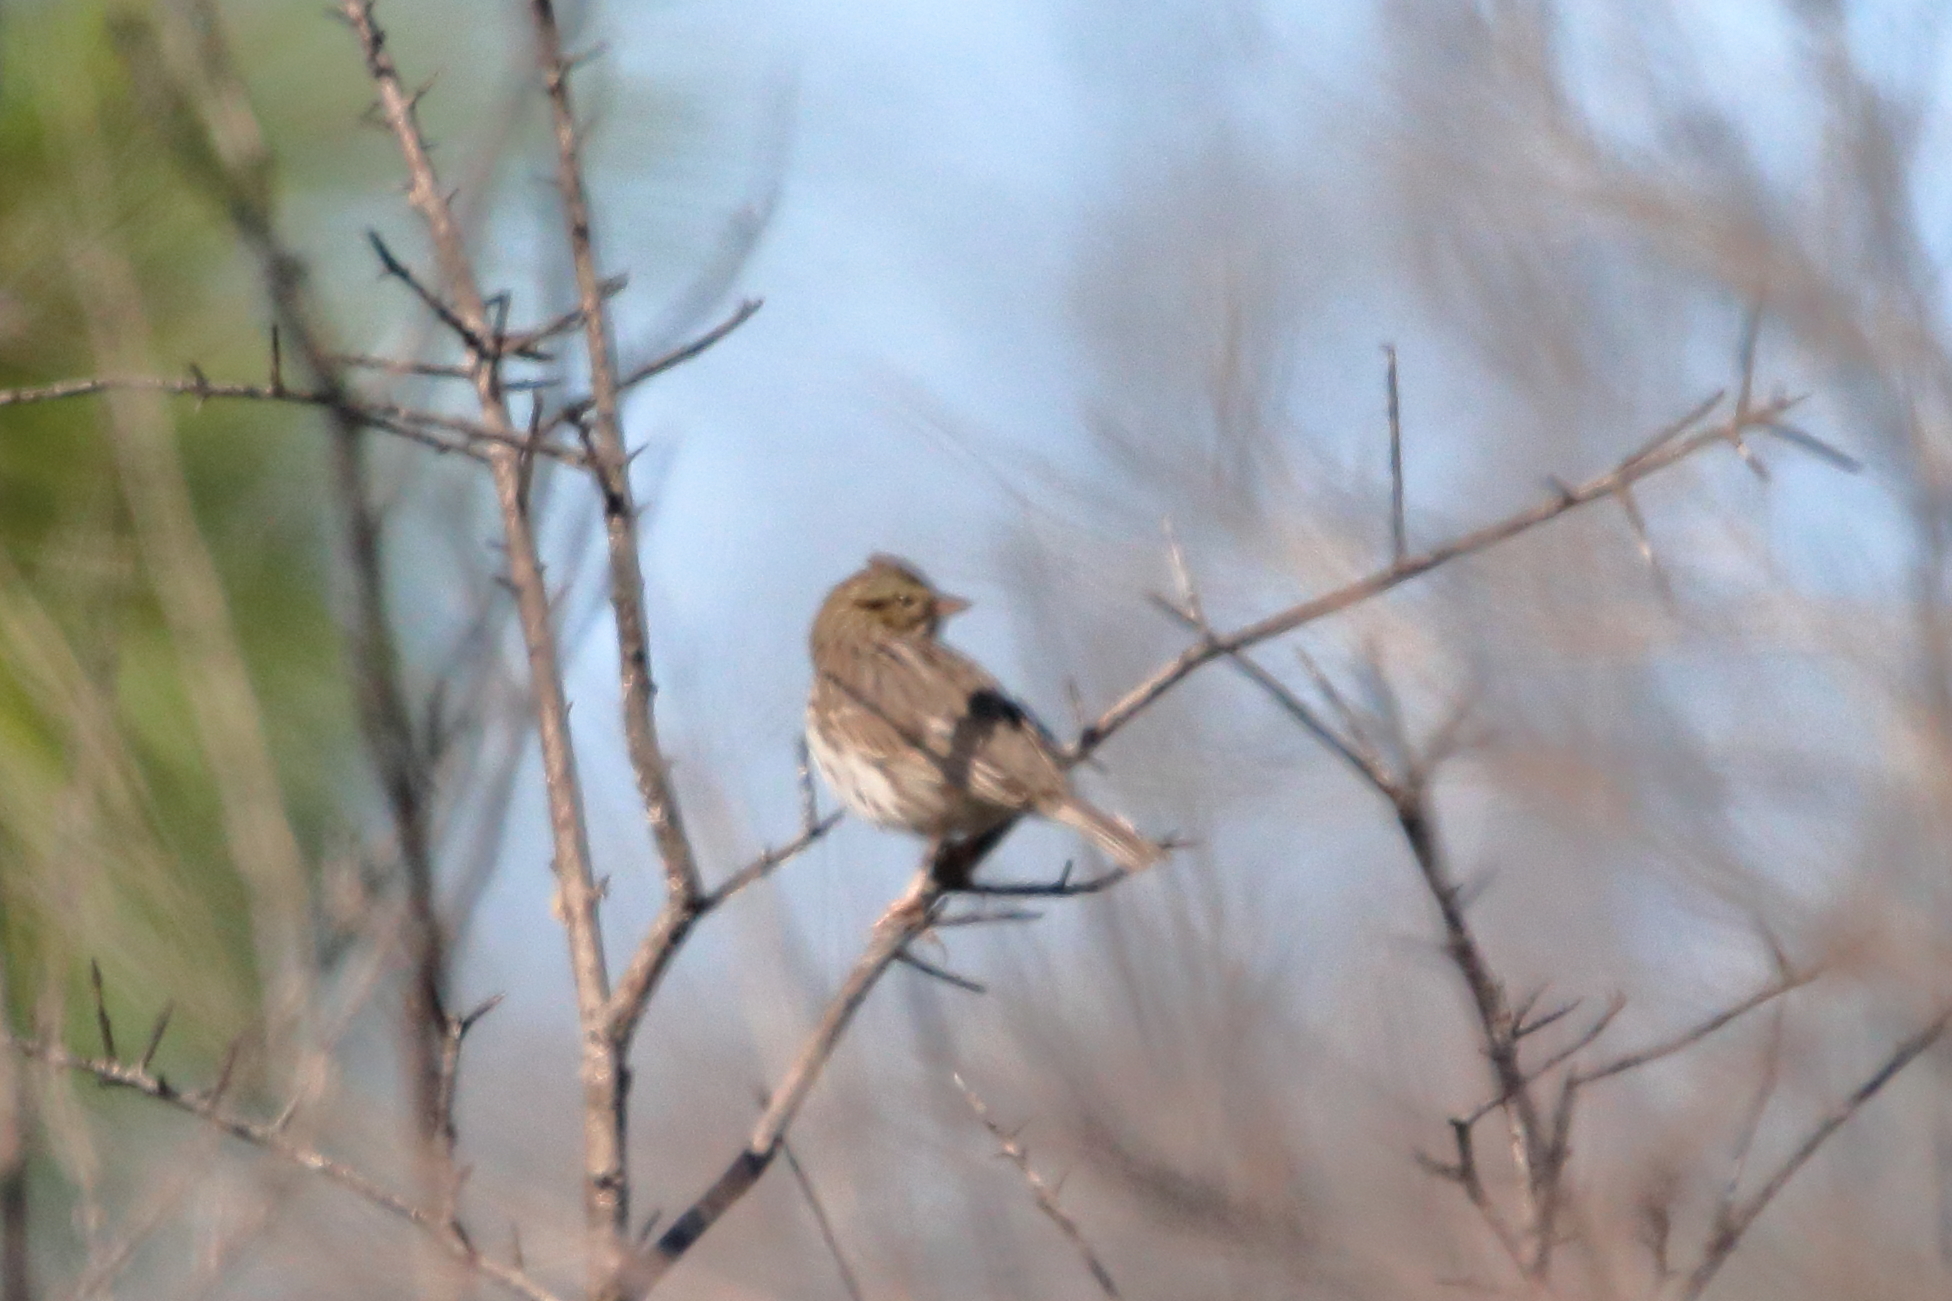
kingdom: Animalia
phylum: Chordata
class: Aves
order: Passeriformes
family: Passerellidae
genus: Passerculus
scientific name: Passerculus sandwichensis
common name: Savannah sparrow
